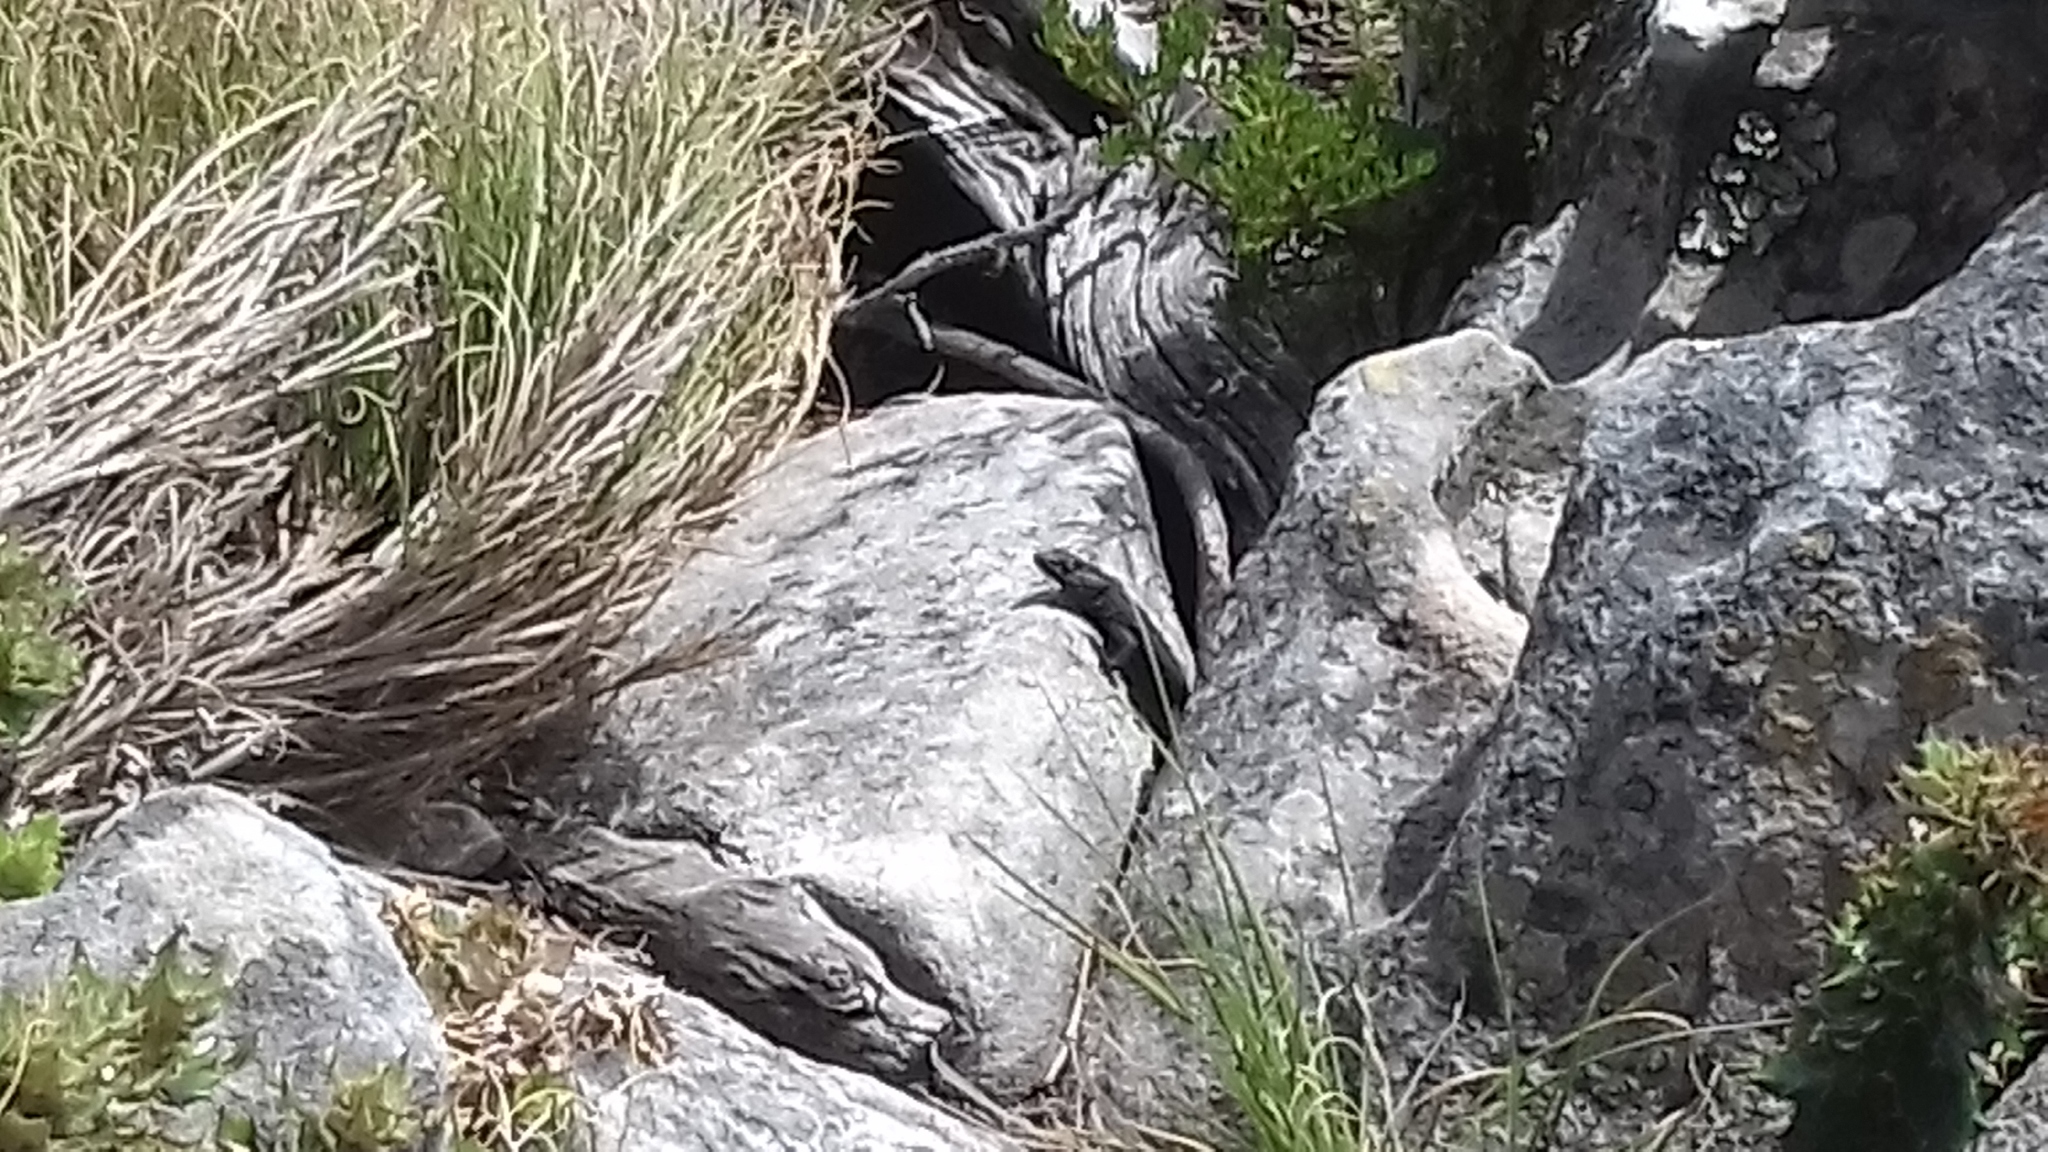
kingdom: Animalia
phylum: Chordata
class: Squamata
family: Cordylidae
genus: Cordylus
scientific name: Cordylus niger
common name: Black girdled lizard
